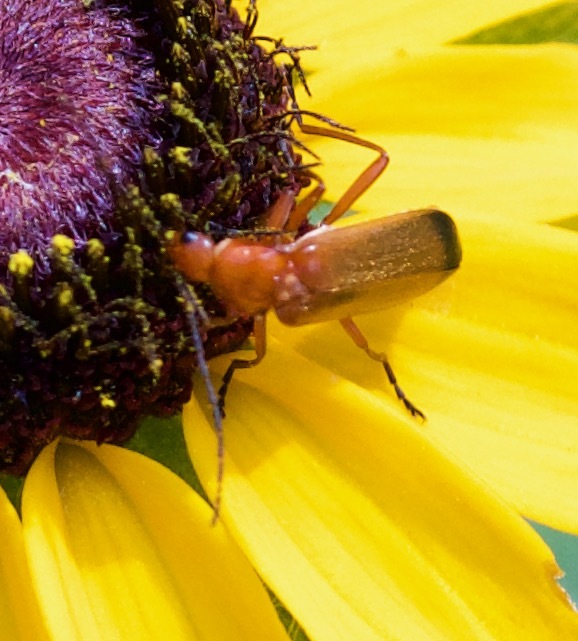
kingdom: Animalia
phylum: Arthropoda
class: Insecta
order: Coleoptera
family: Cantharidae
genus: Rhagonycha
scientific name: Rhagonycha fulva
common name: Common red soldier beetle
